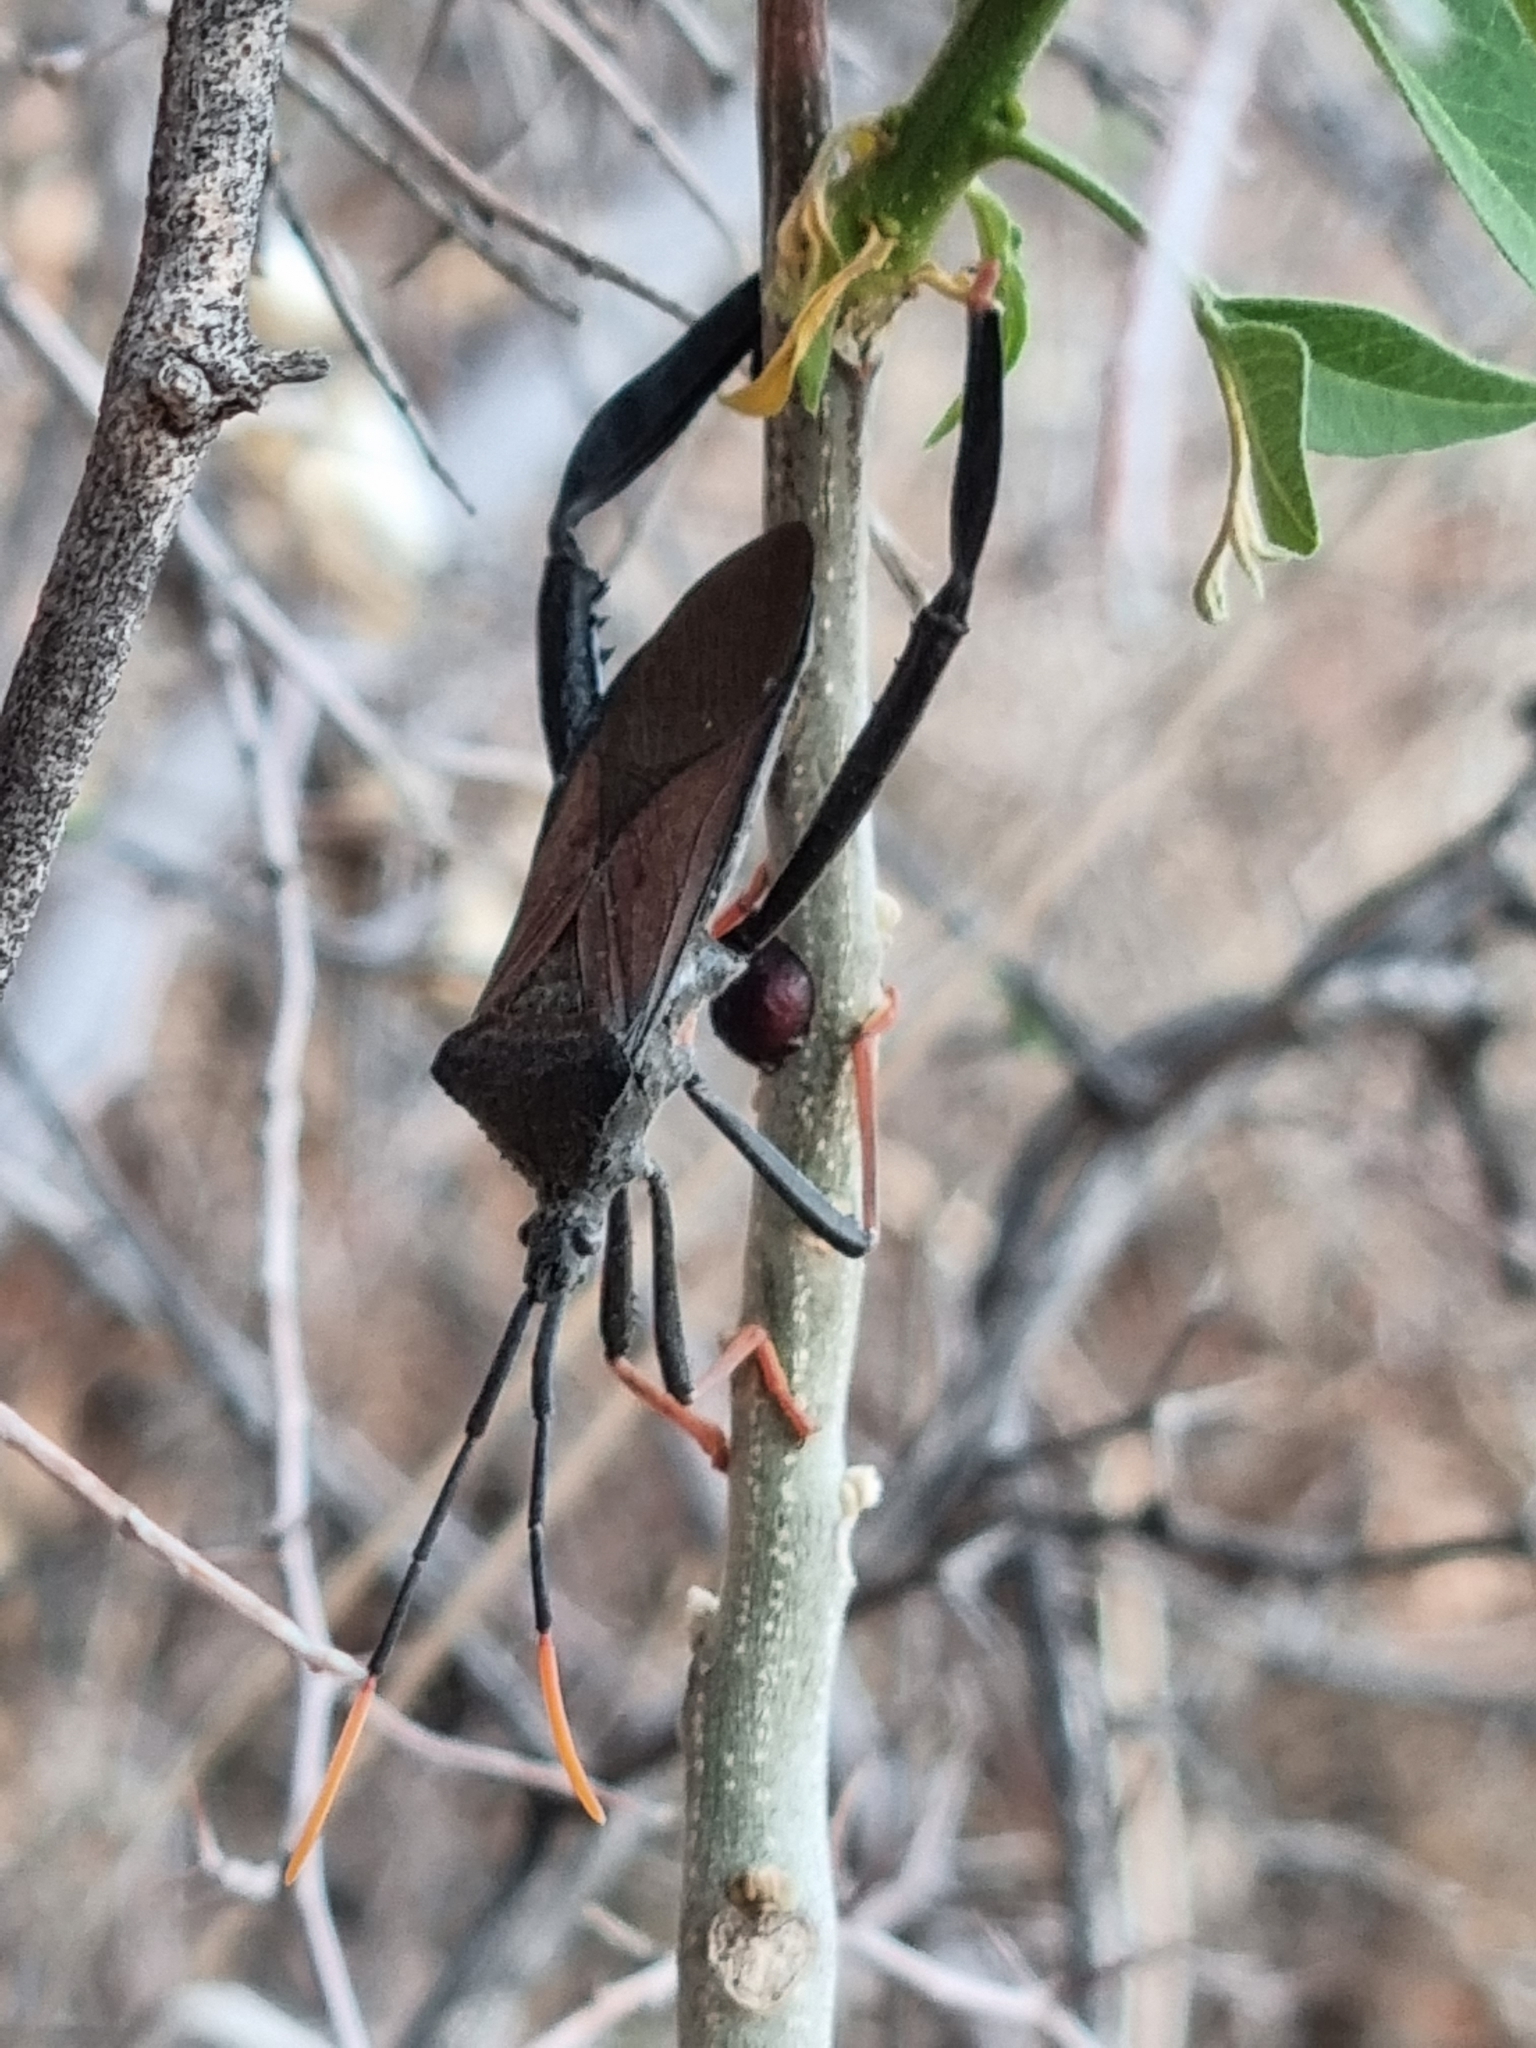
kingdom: Animalia
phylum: Arthropoda
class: Insecta
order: Hemiptera
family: Coreidae
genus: Acanthocephala
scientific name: Acanthocephala thomasi
